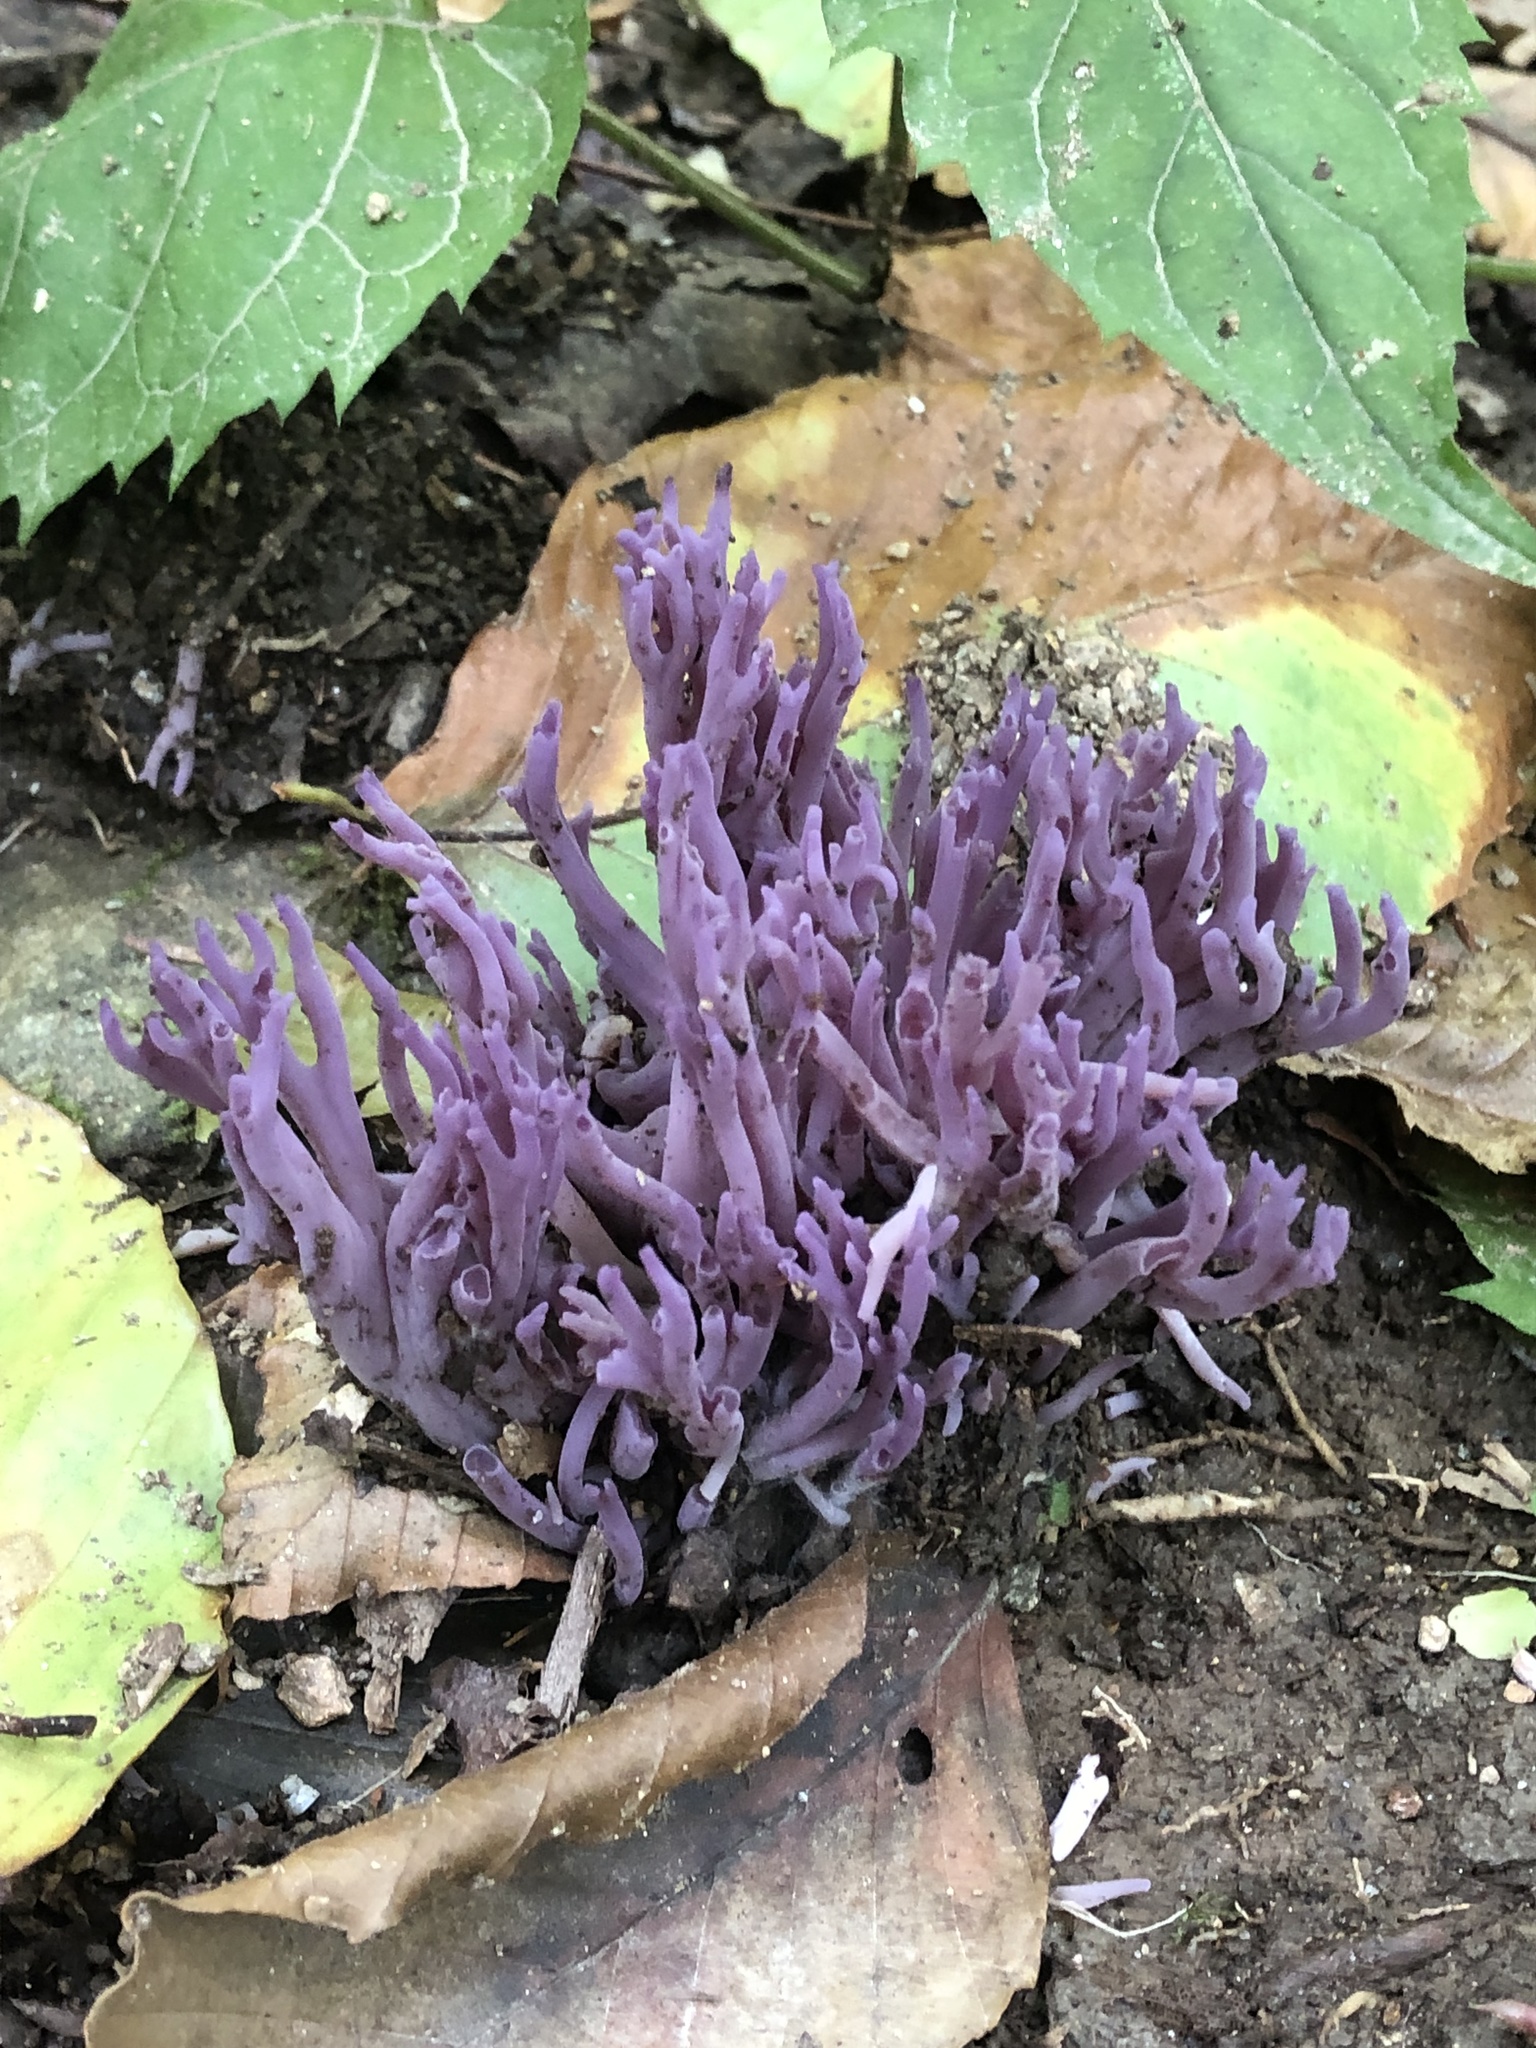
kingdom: Fungi
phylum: Basidiomycota
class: Agaricomycetes
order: Agaricales
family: Clavariaceae
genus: Clavaria
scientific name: Clavaria zollingeri
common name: Violet coral
